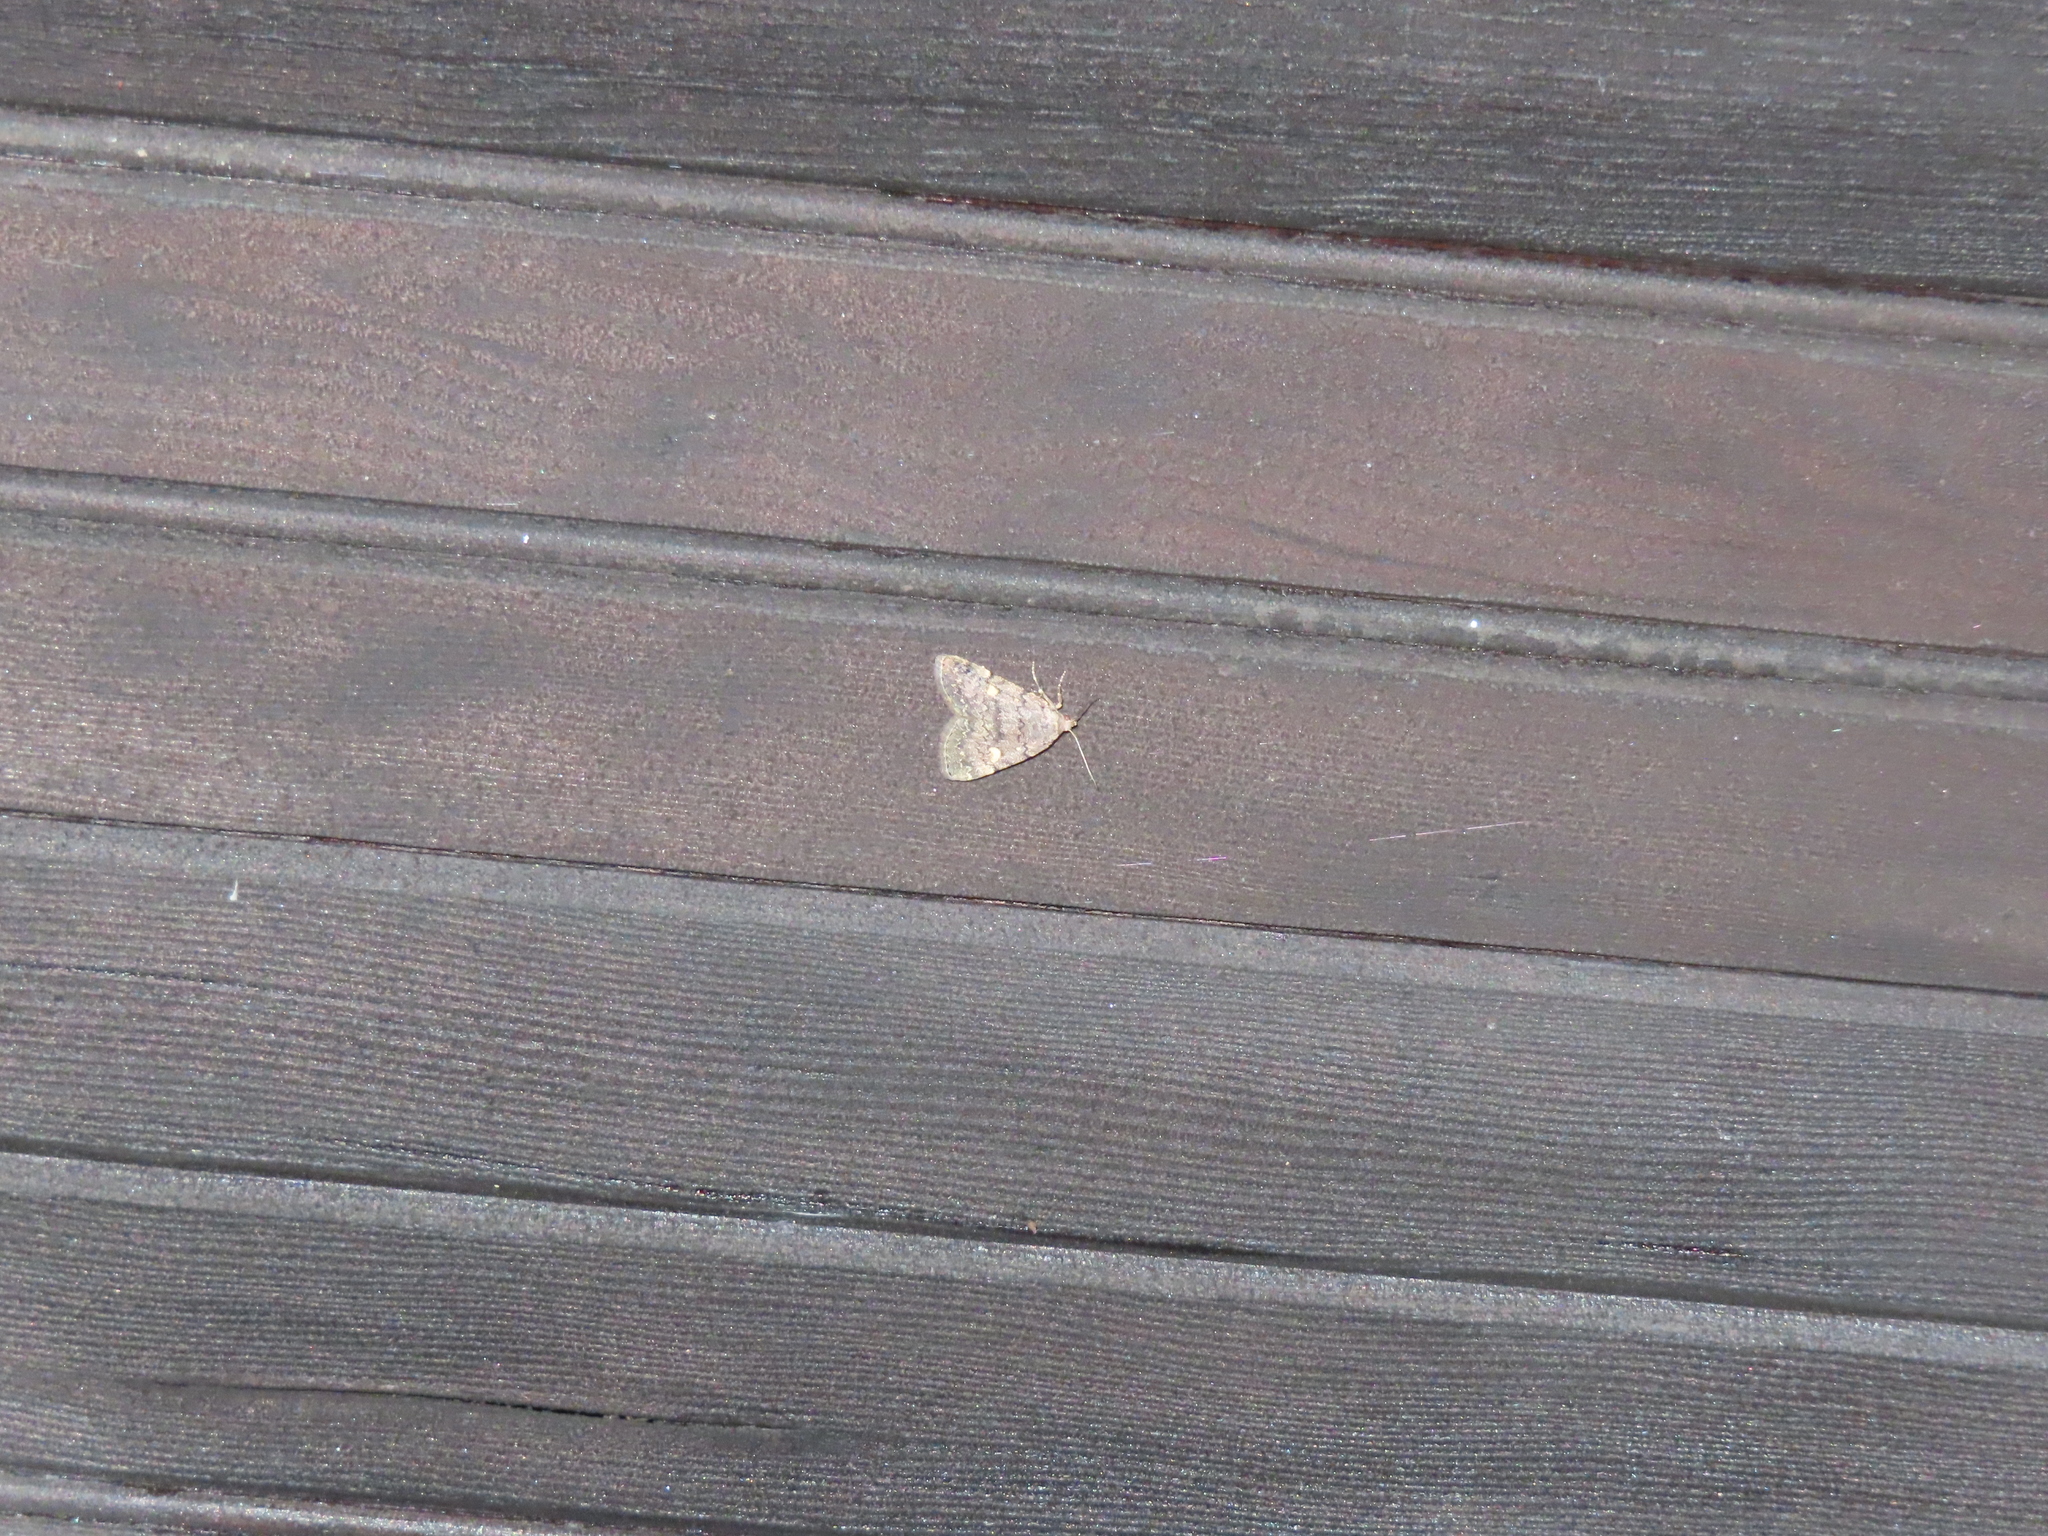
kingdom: Animalia
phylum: Arthropoda
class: Insecta
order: Lepidoptera
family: Erebidae
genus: Idia
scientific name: Idia aemula
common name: Common idia moth
